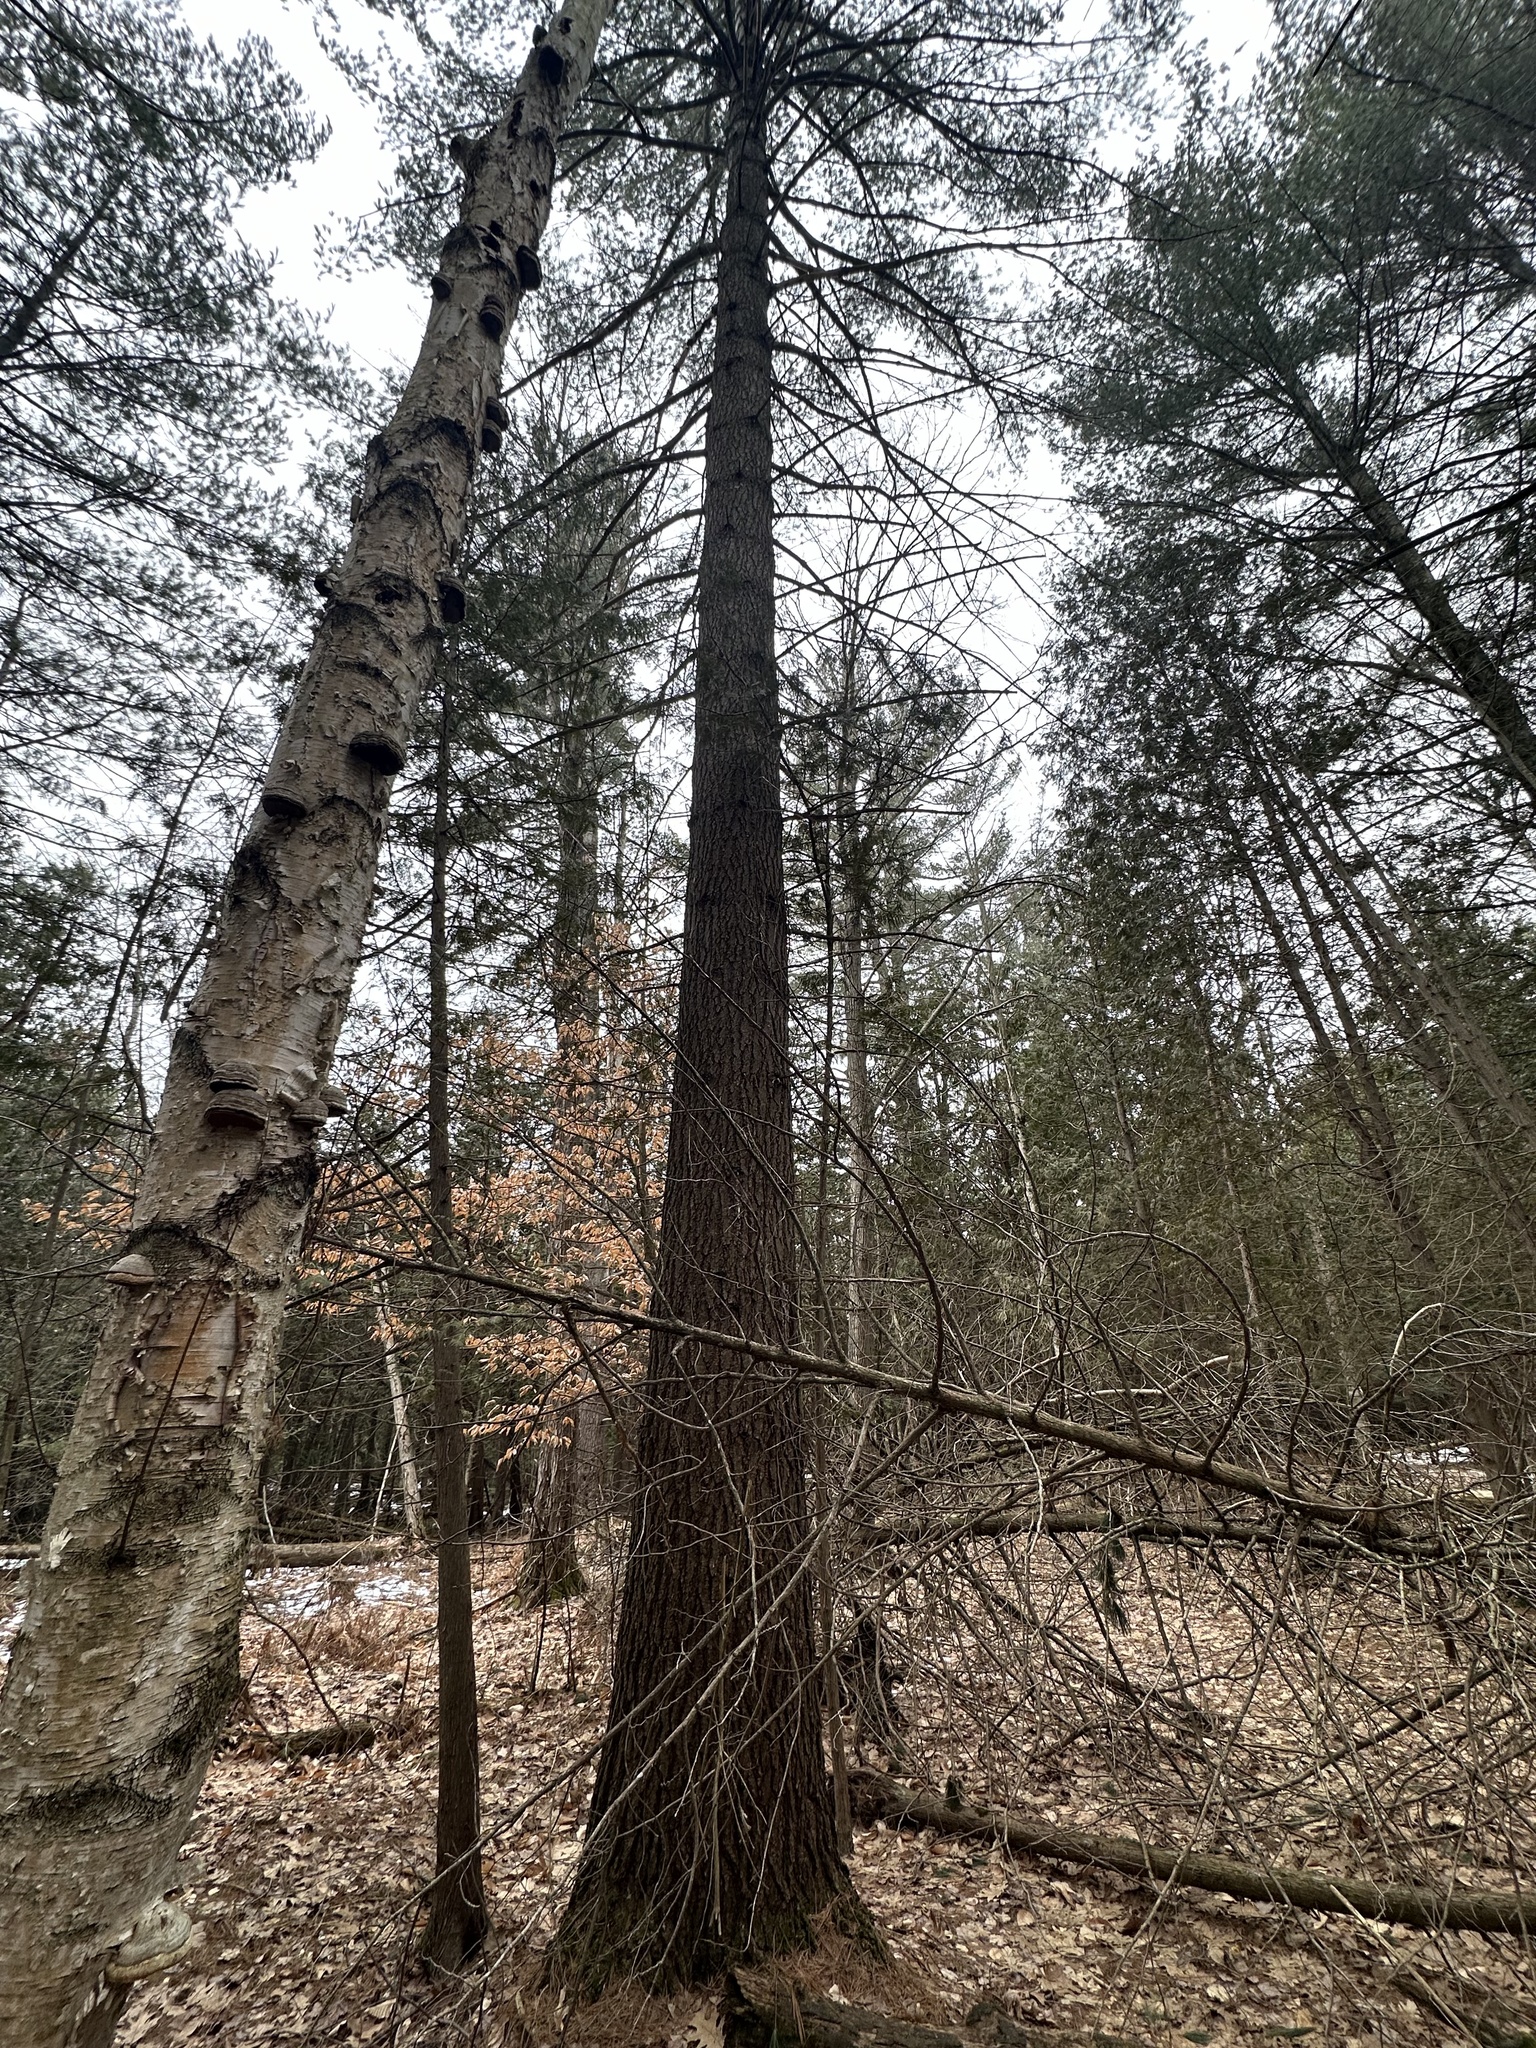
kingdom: Plantae
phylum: Tracheophyta
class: Pinopsida
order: Pinales
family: Pinaceae
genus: Pinus
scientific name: Pinus strobus
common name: Weymouth pine
